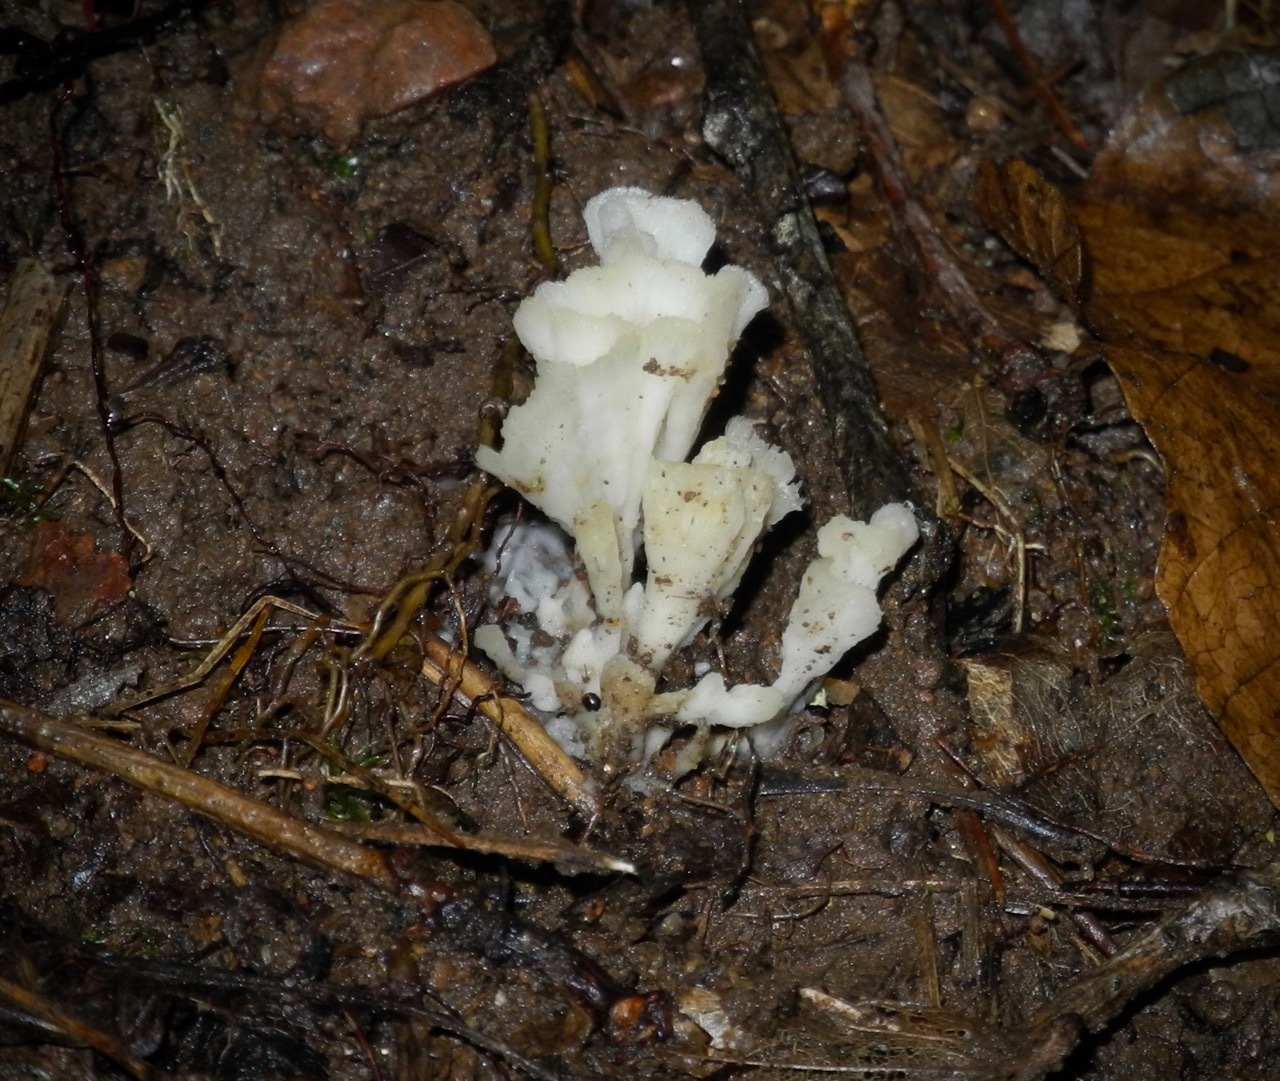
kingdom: Fungi
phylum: Basidiomycota
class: Agaricomycetes
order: Sebacinales
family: Sebacinaceae
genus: Sebacina
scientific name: Sebacina schweinitzii
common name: Jellied false coral fungus
